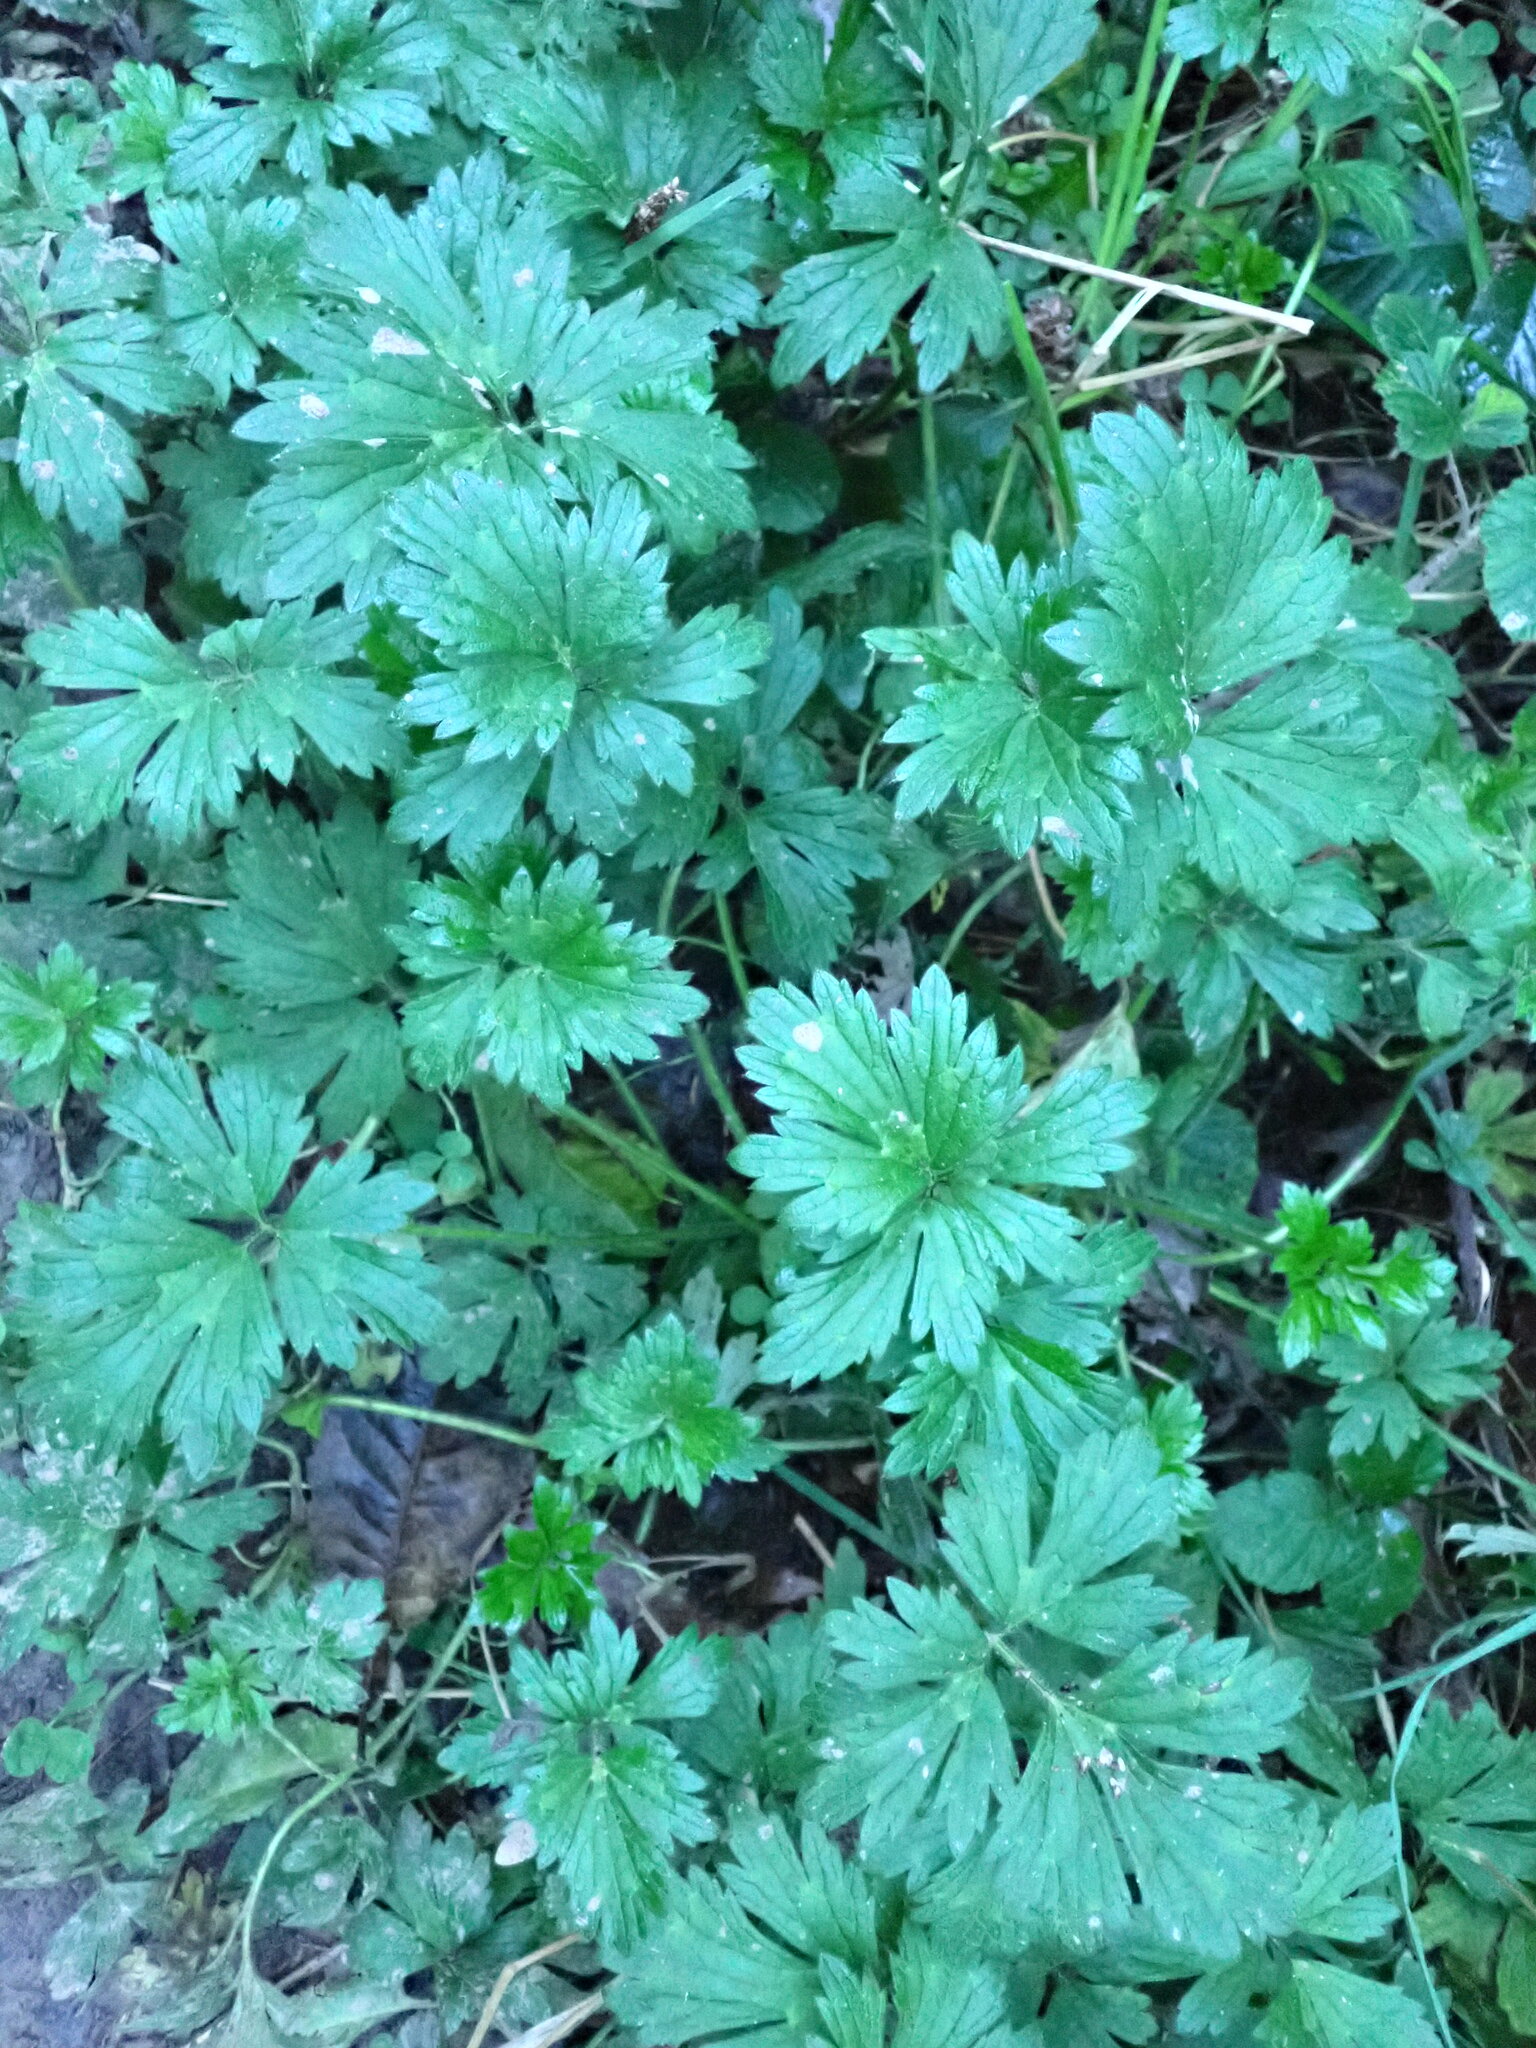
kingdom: Plantae
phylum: Tracheophyta
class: Magnoliopsida
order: Ranunculales
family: Ranunculaceae
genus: Ranunculus
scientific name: Ranunculus repens
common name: Creeping buttercup
